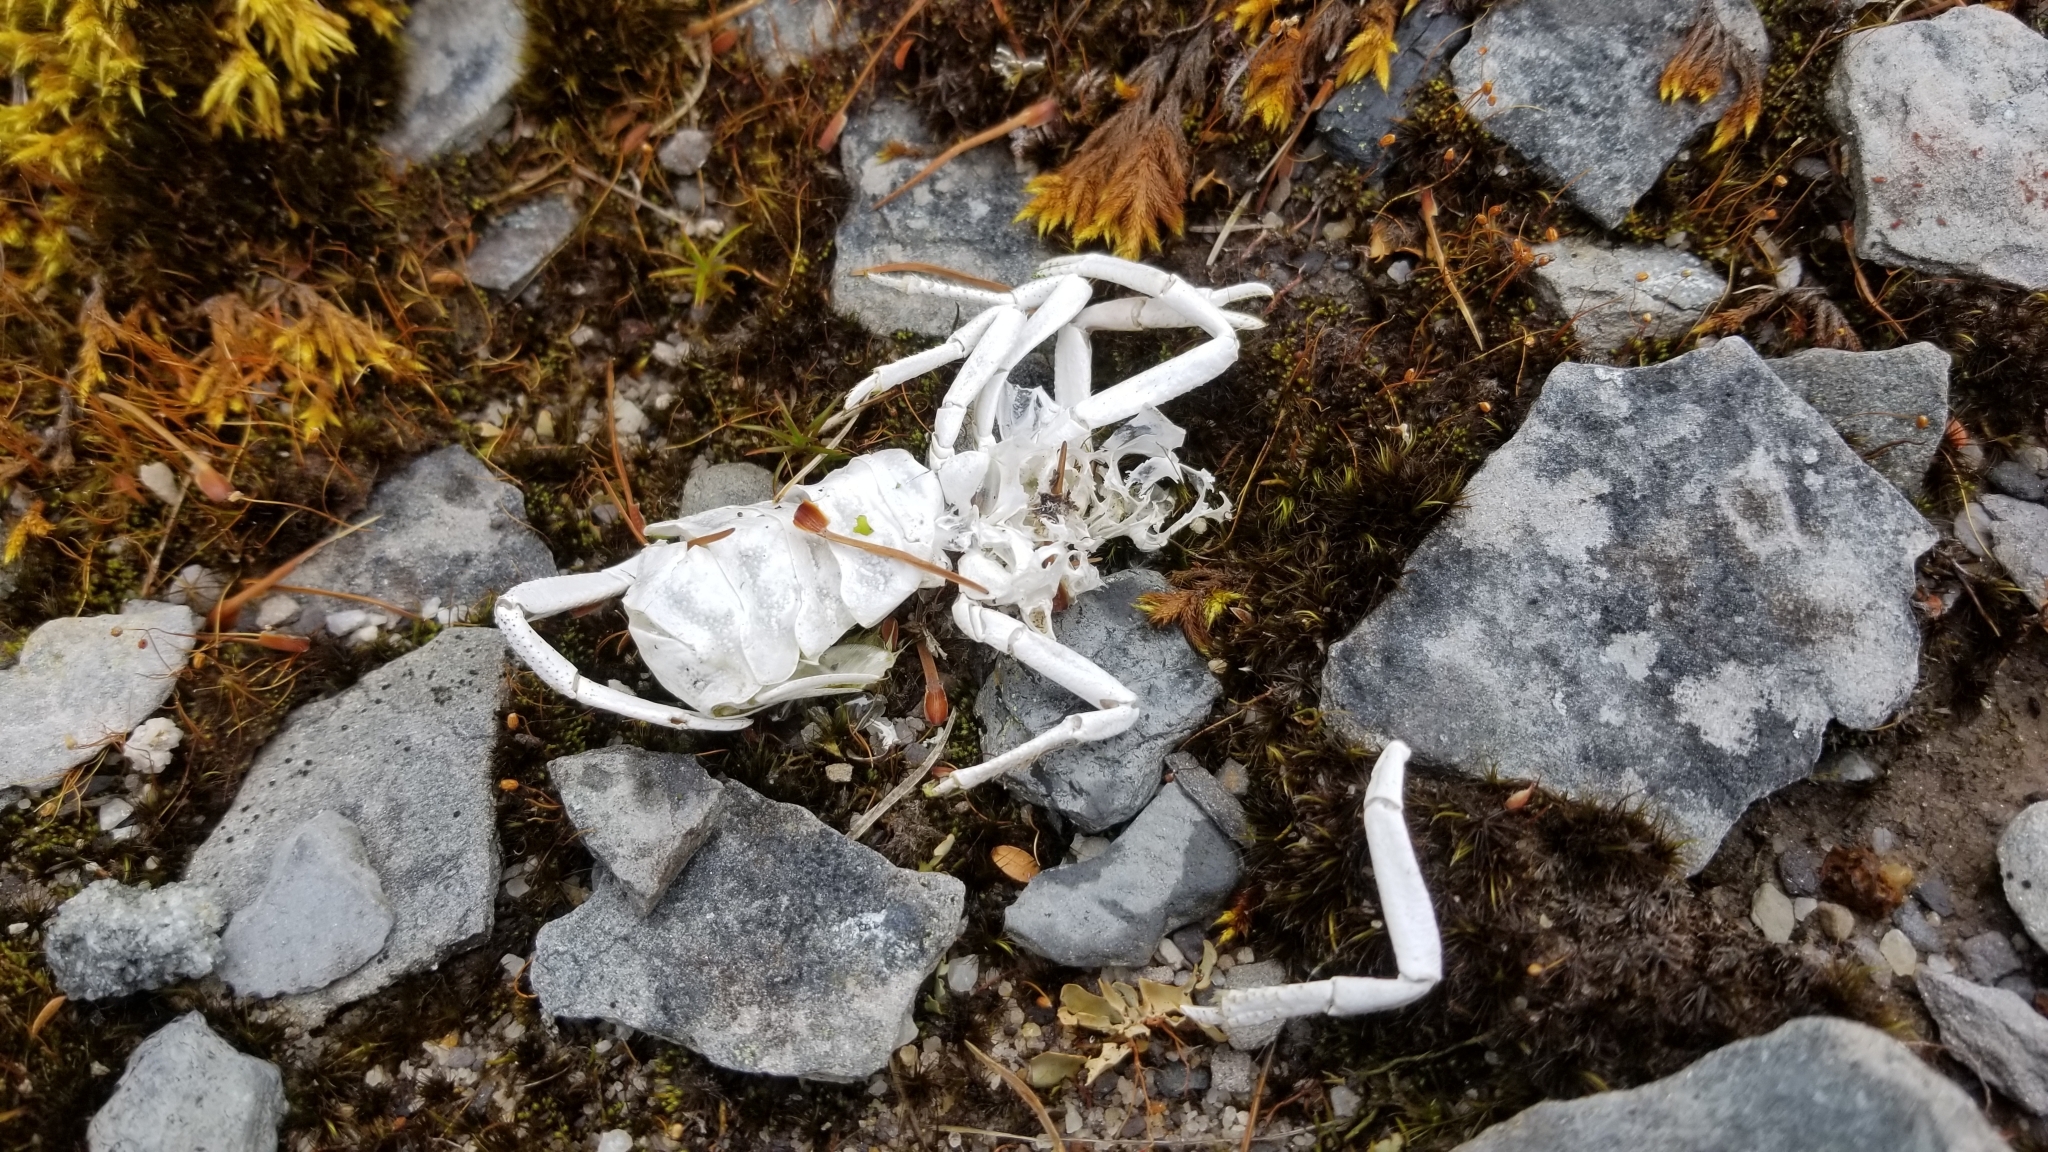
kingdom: Animalia
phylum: Arthropoda
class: Malacostraca
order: Decapoda
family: Parastacidae
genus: Paranephrops
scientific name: Paranephrops planifrons
